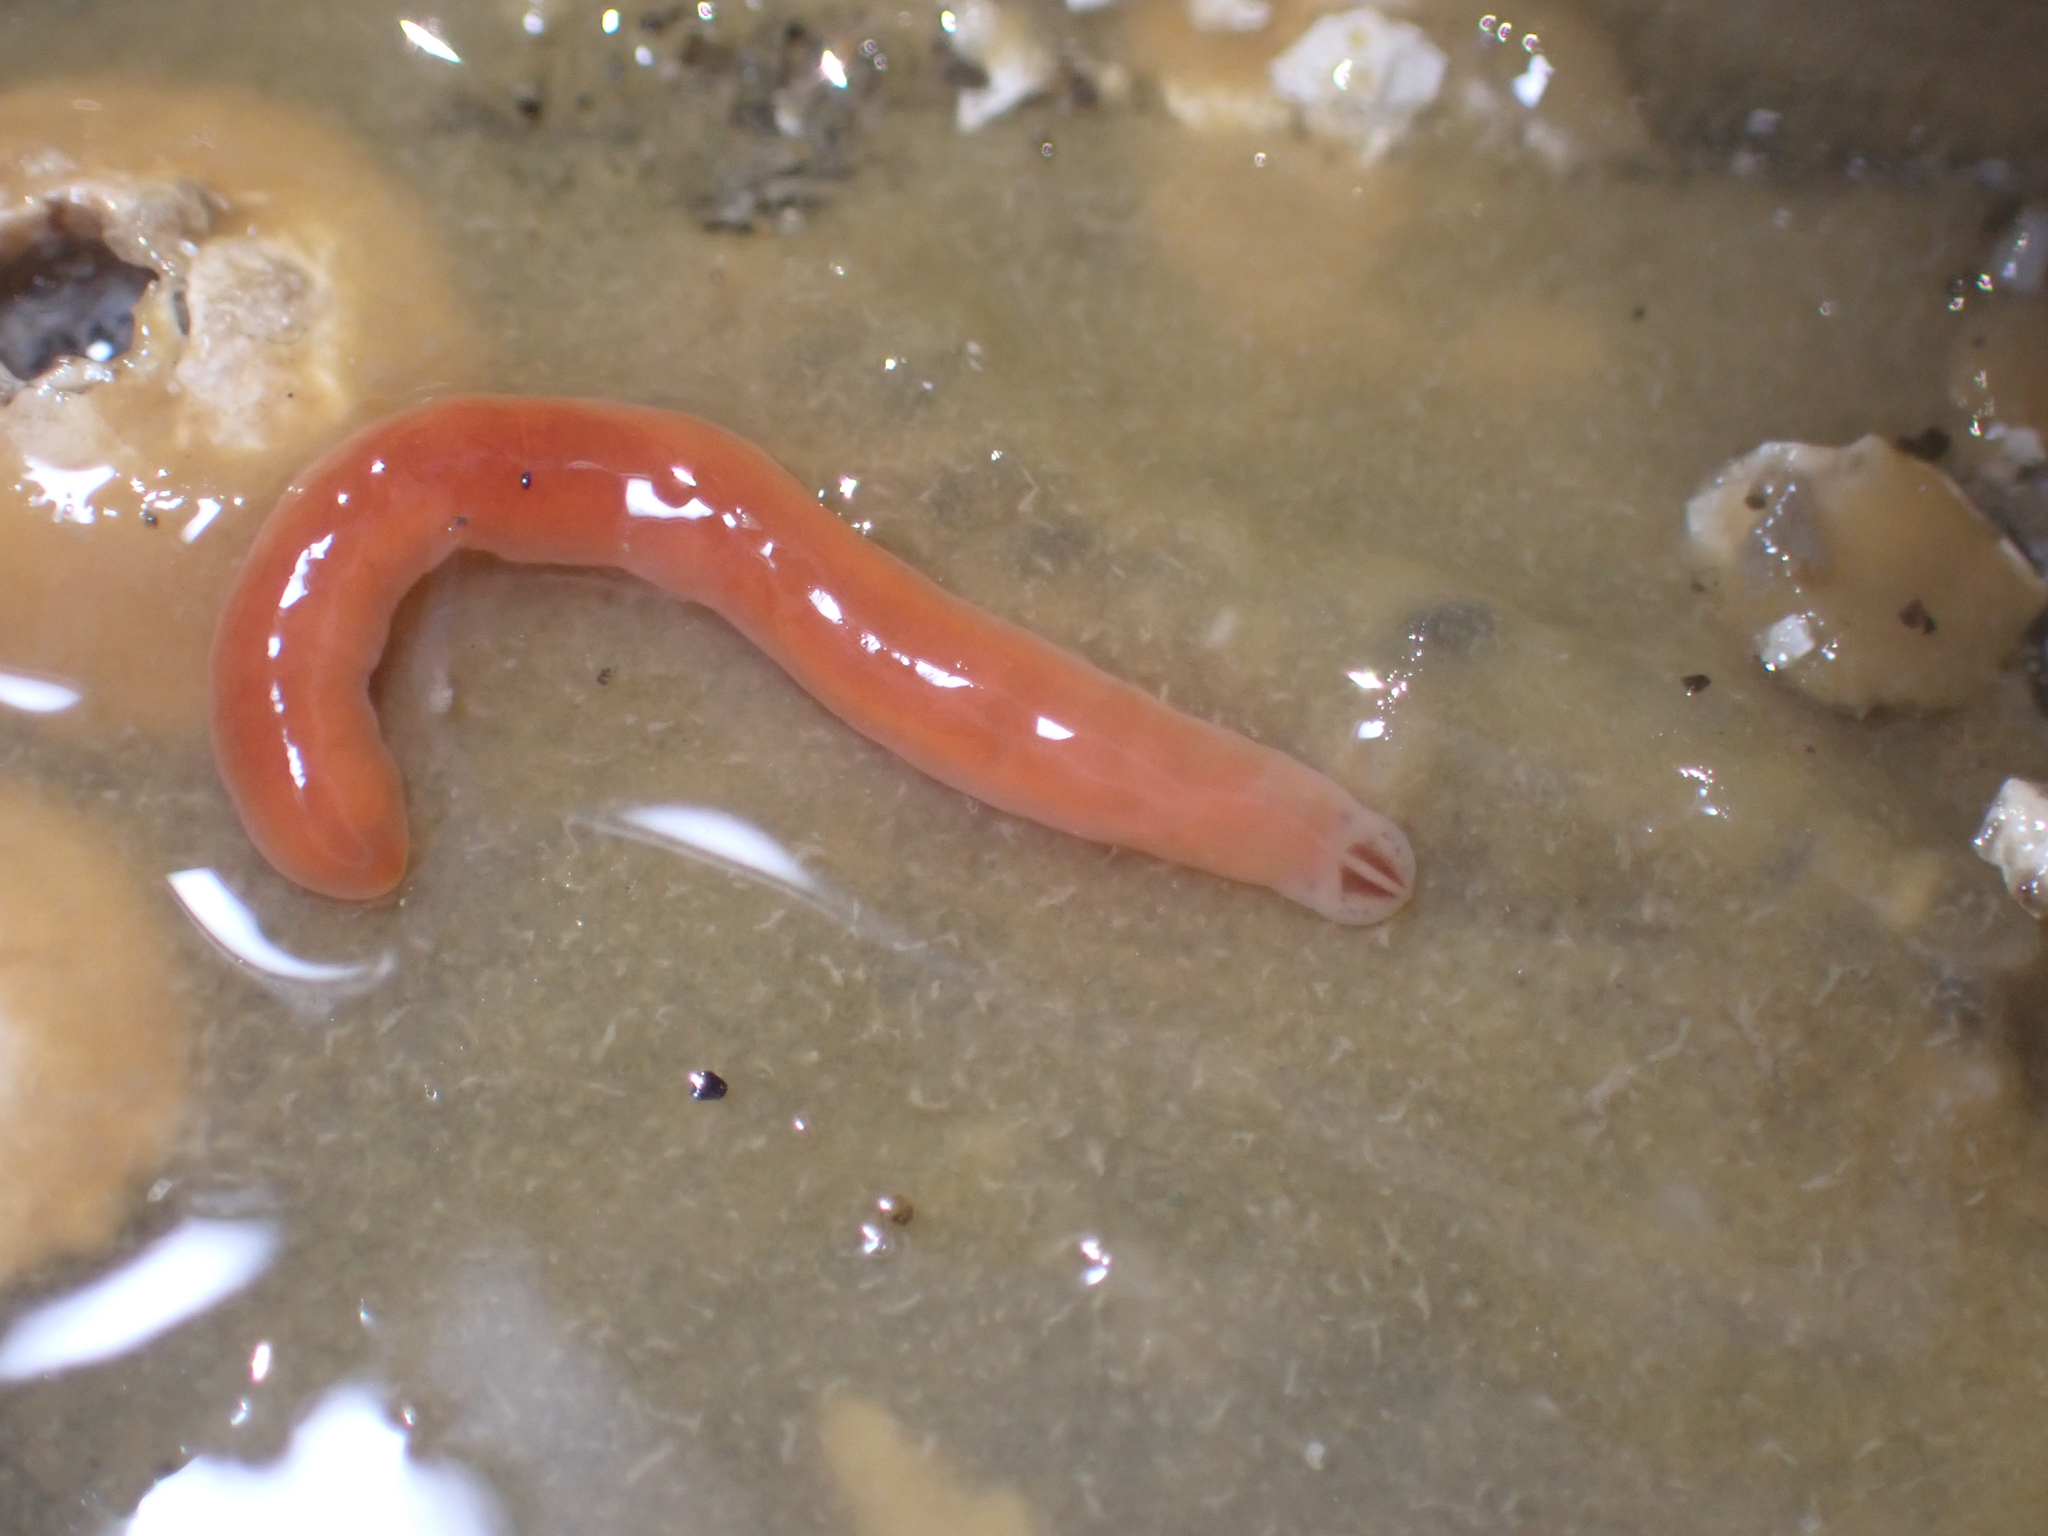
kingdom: Animalia
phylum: Nemertea
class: Hoplonemertea
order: Monostilifera
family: Cratenemertidae
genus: Nipponnemertes
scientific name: Nipponnemertes bimaculata
